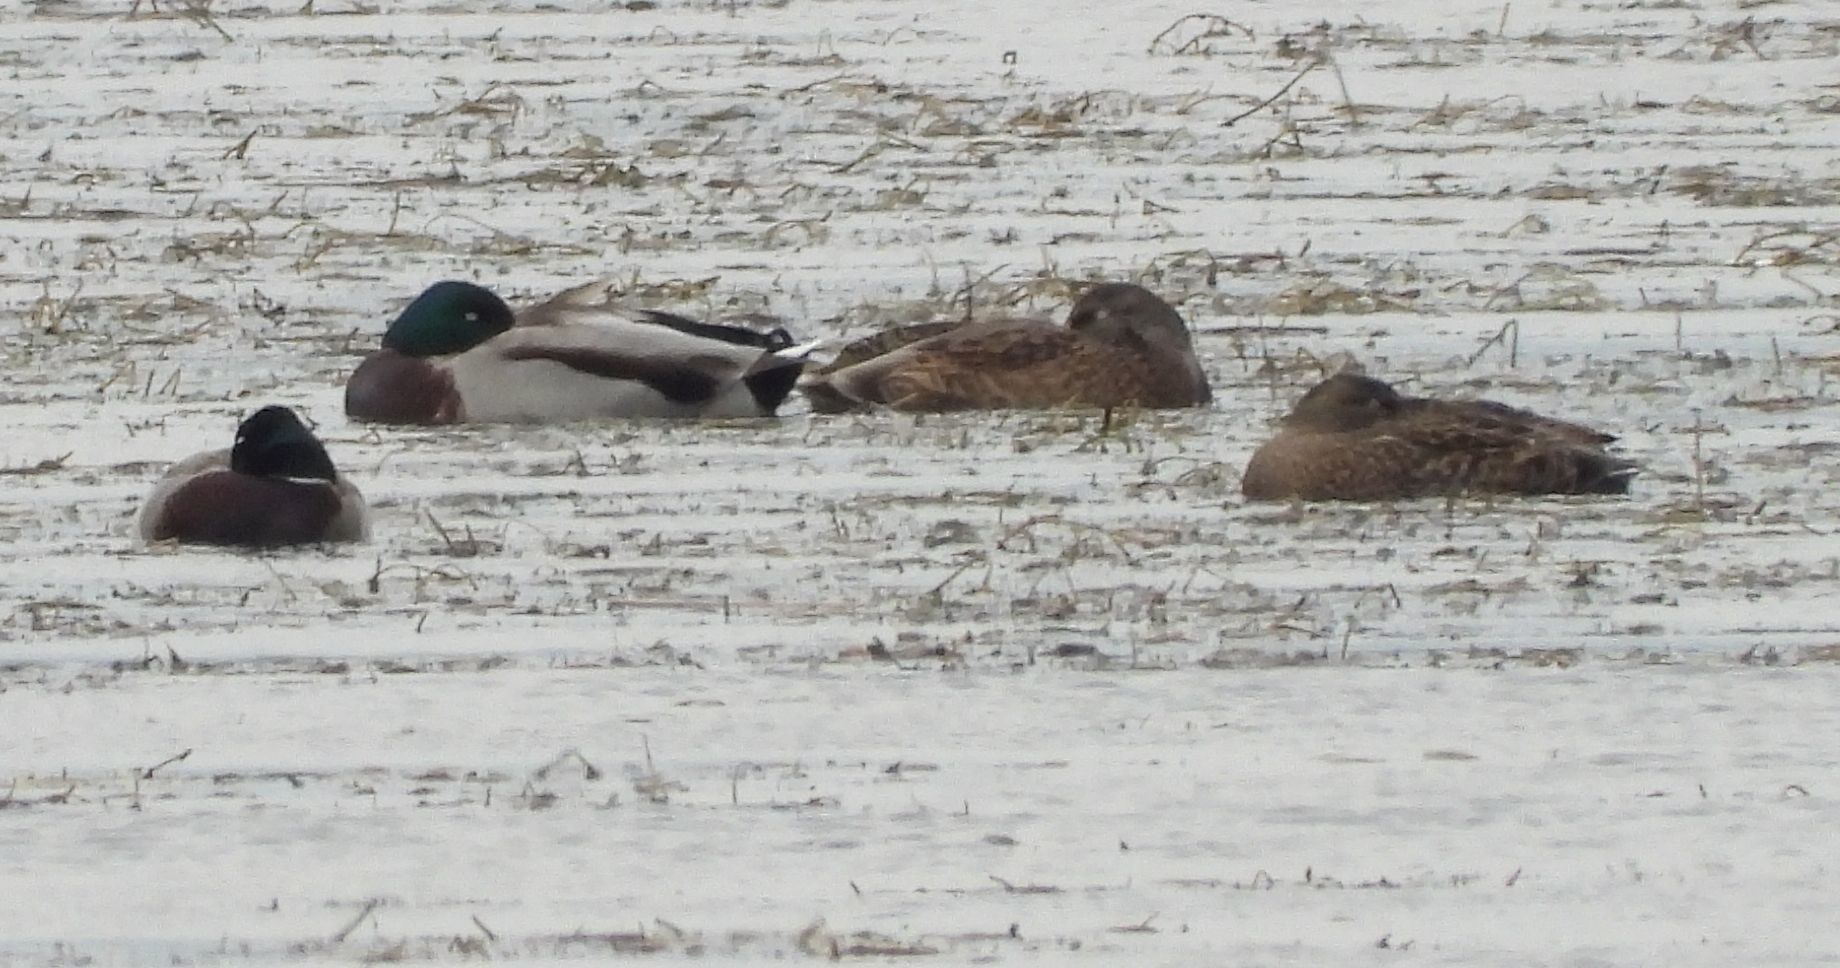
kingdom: Animalia
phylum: Chordata
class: Aves
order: Anseriformes
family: Anatidae
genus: Anas
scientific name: Anas platyrhynchos
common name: Mallard
